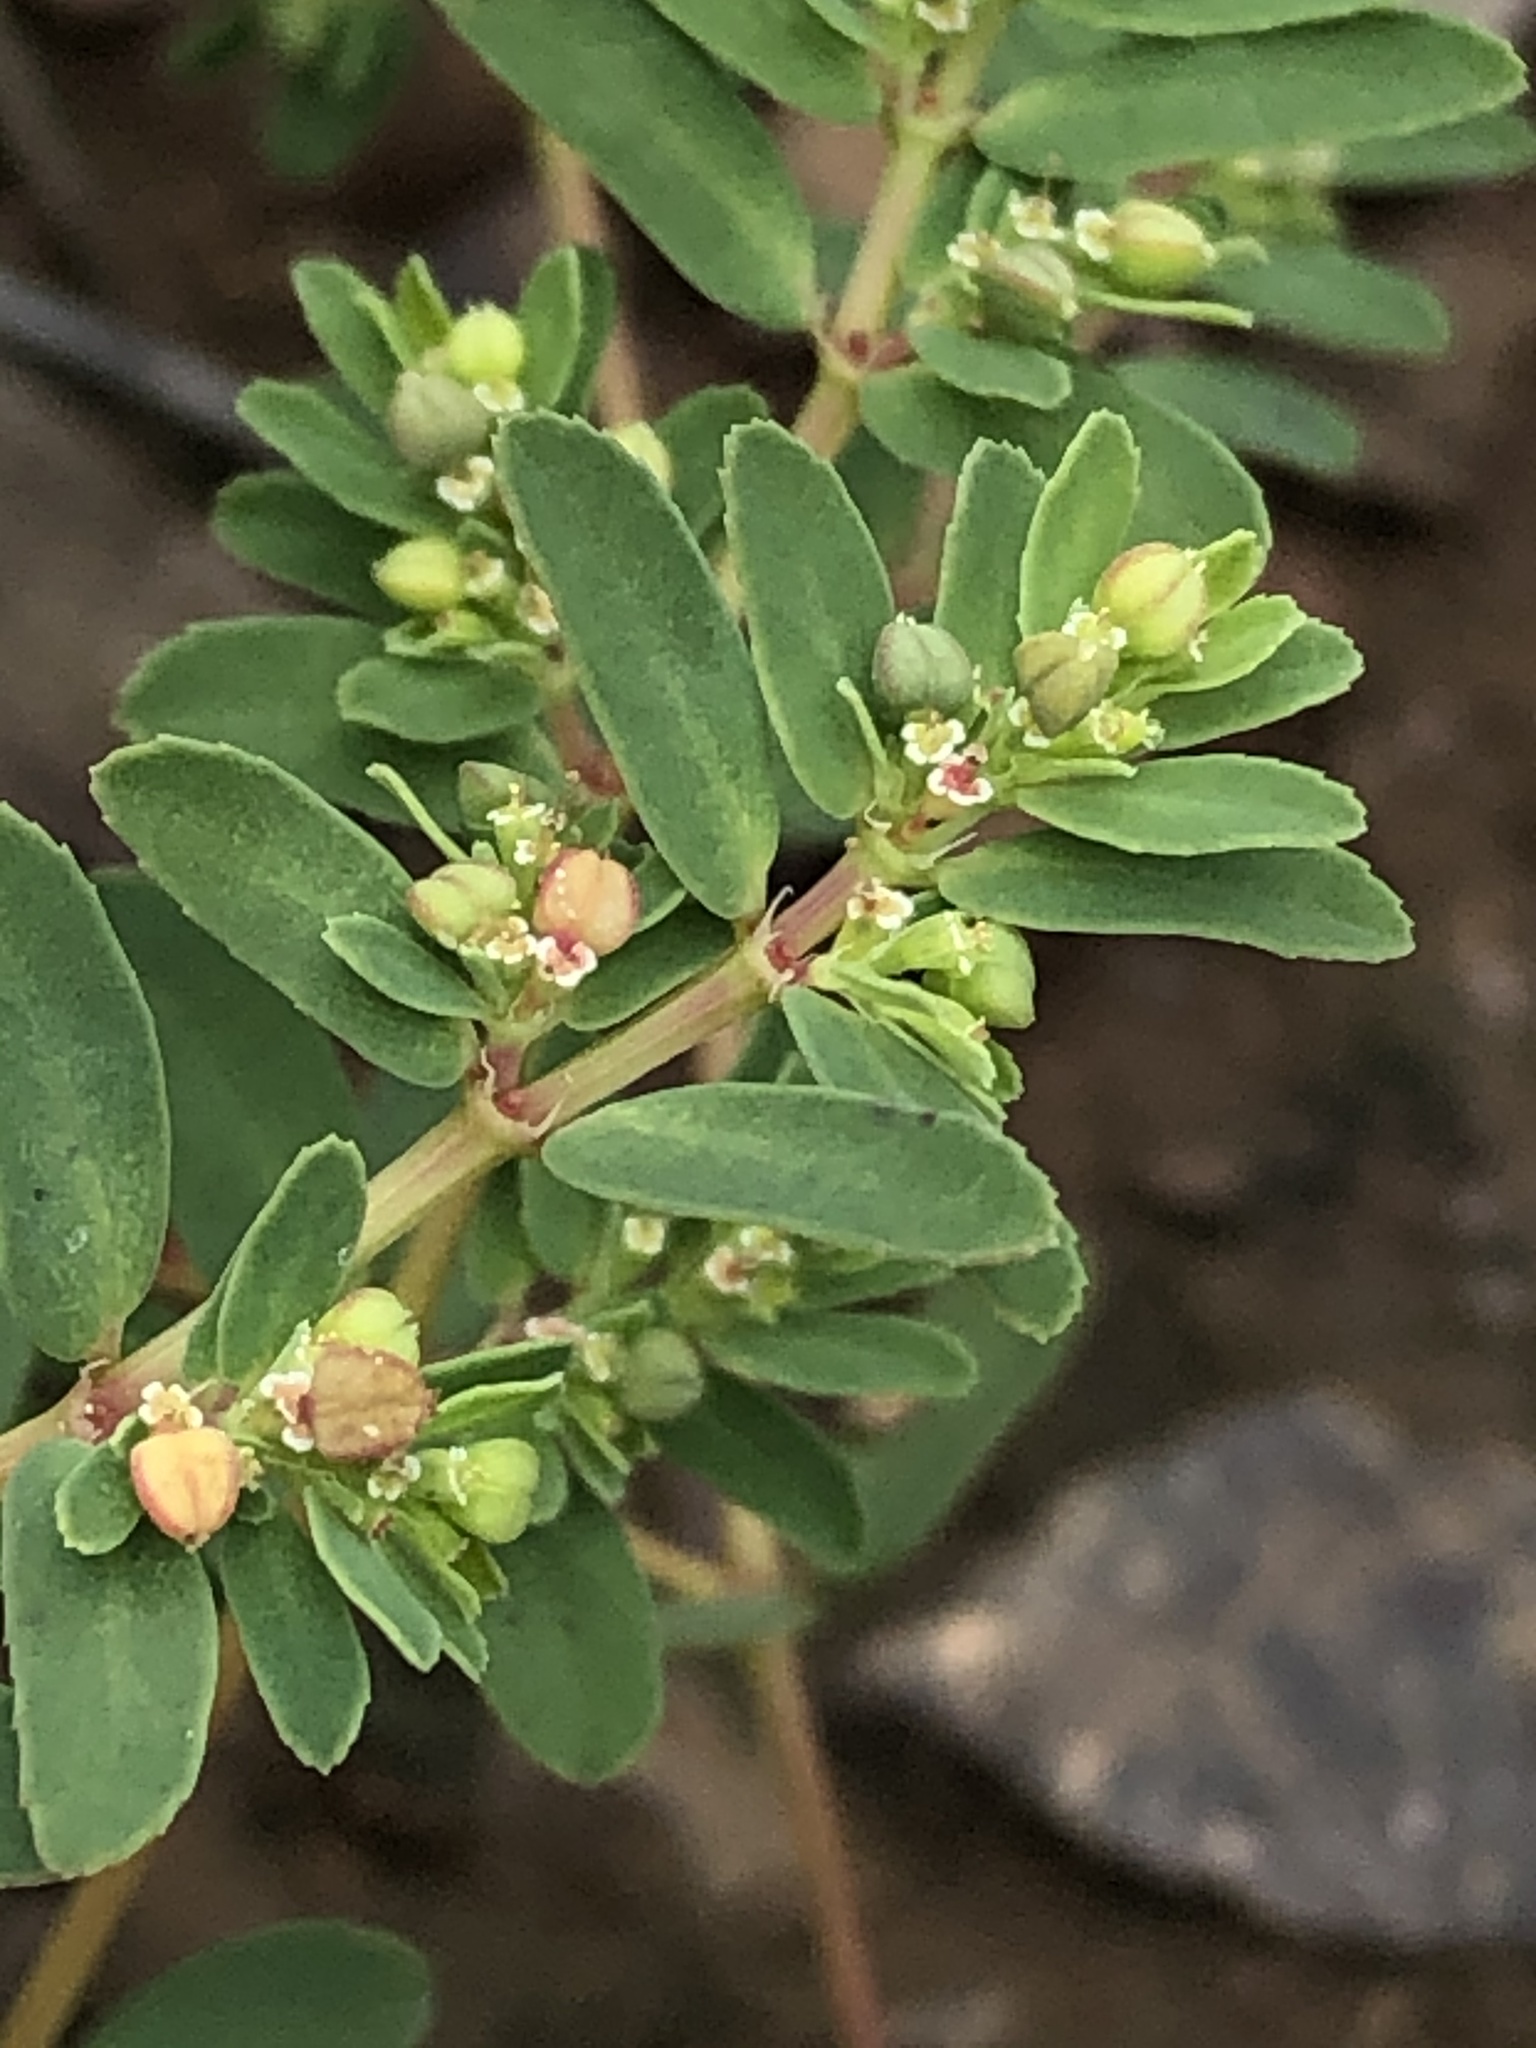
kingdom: Plantae
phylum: Tracheophyta
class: Magnoliopsida
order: Malpighiales
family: Euphorbiaceae
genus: Euphorbia
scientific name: Euphorbia serpillifolia
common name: Thyme-leaf spurge
